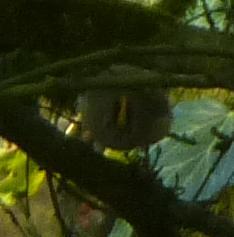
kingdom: Animalia
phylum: Chordata
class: Aves
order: Passeriformes
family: Regulidae
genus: Regulus
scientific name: Regulus regulus
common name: Goldcrest
